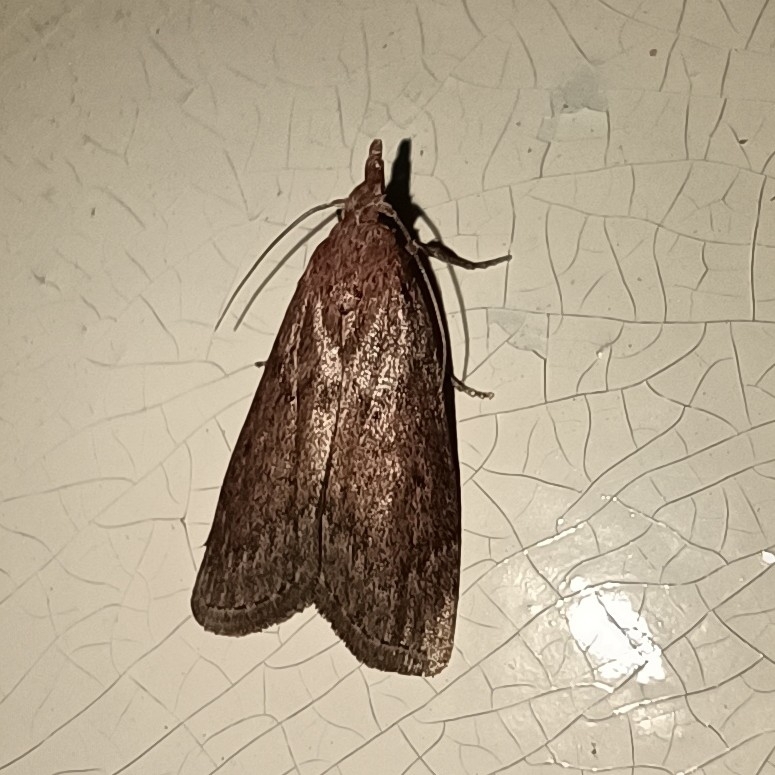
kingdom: Animalia
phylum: Arthropoda
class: Insecta
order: Lepidoptera
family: Pyralidae
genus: Aphomia
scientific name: Aphomia sociella
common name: Bee moth
